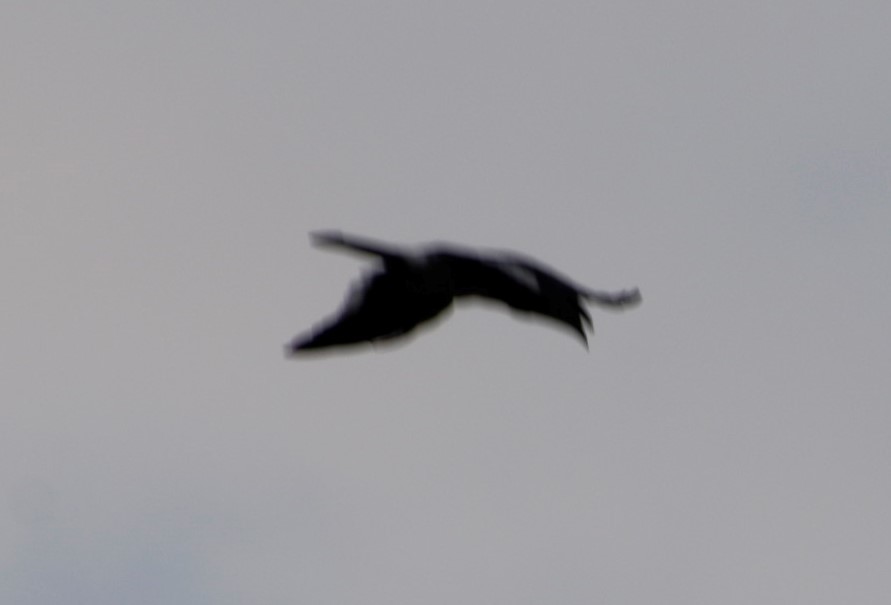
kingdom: Animalia
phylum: Chordata
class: Aves
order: Bucerotiformes
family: Bucerotidae
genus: Lophoceros
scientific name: Lophoceros alboterminatus
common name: Crowned hornbill
